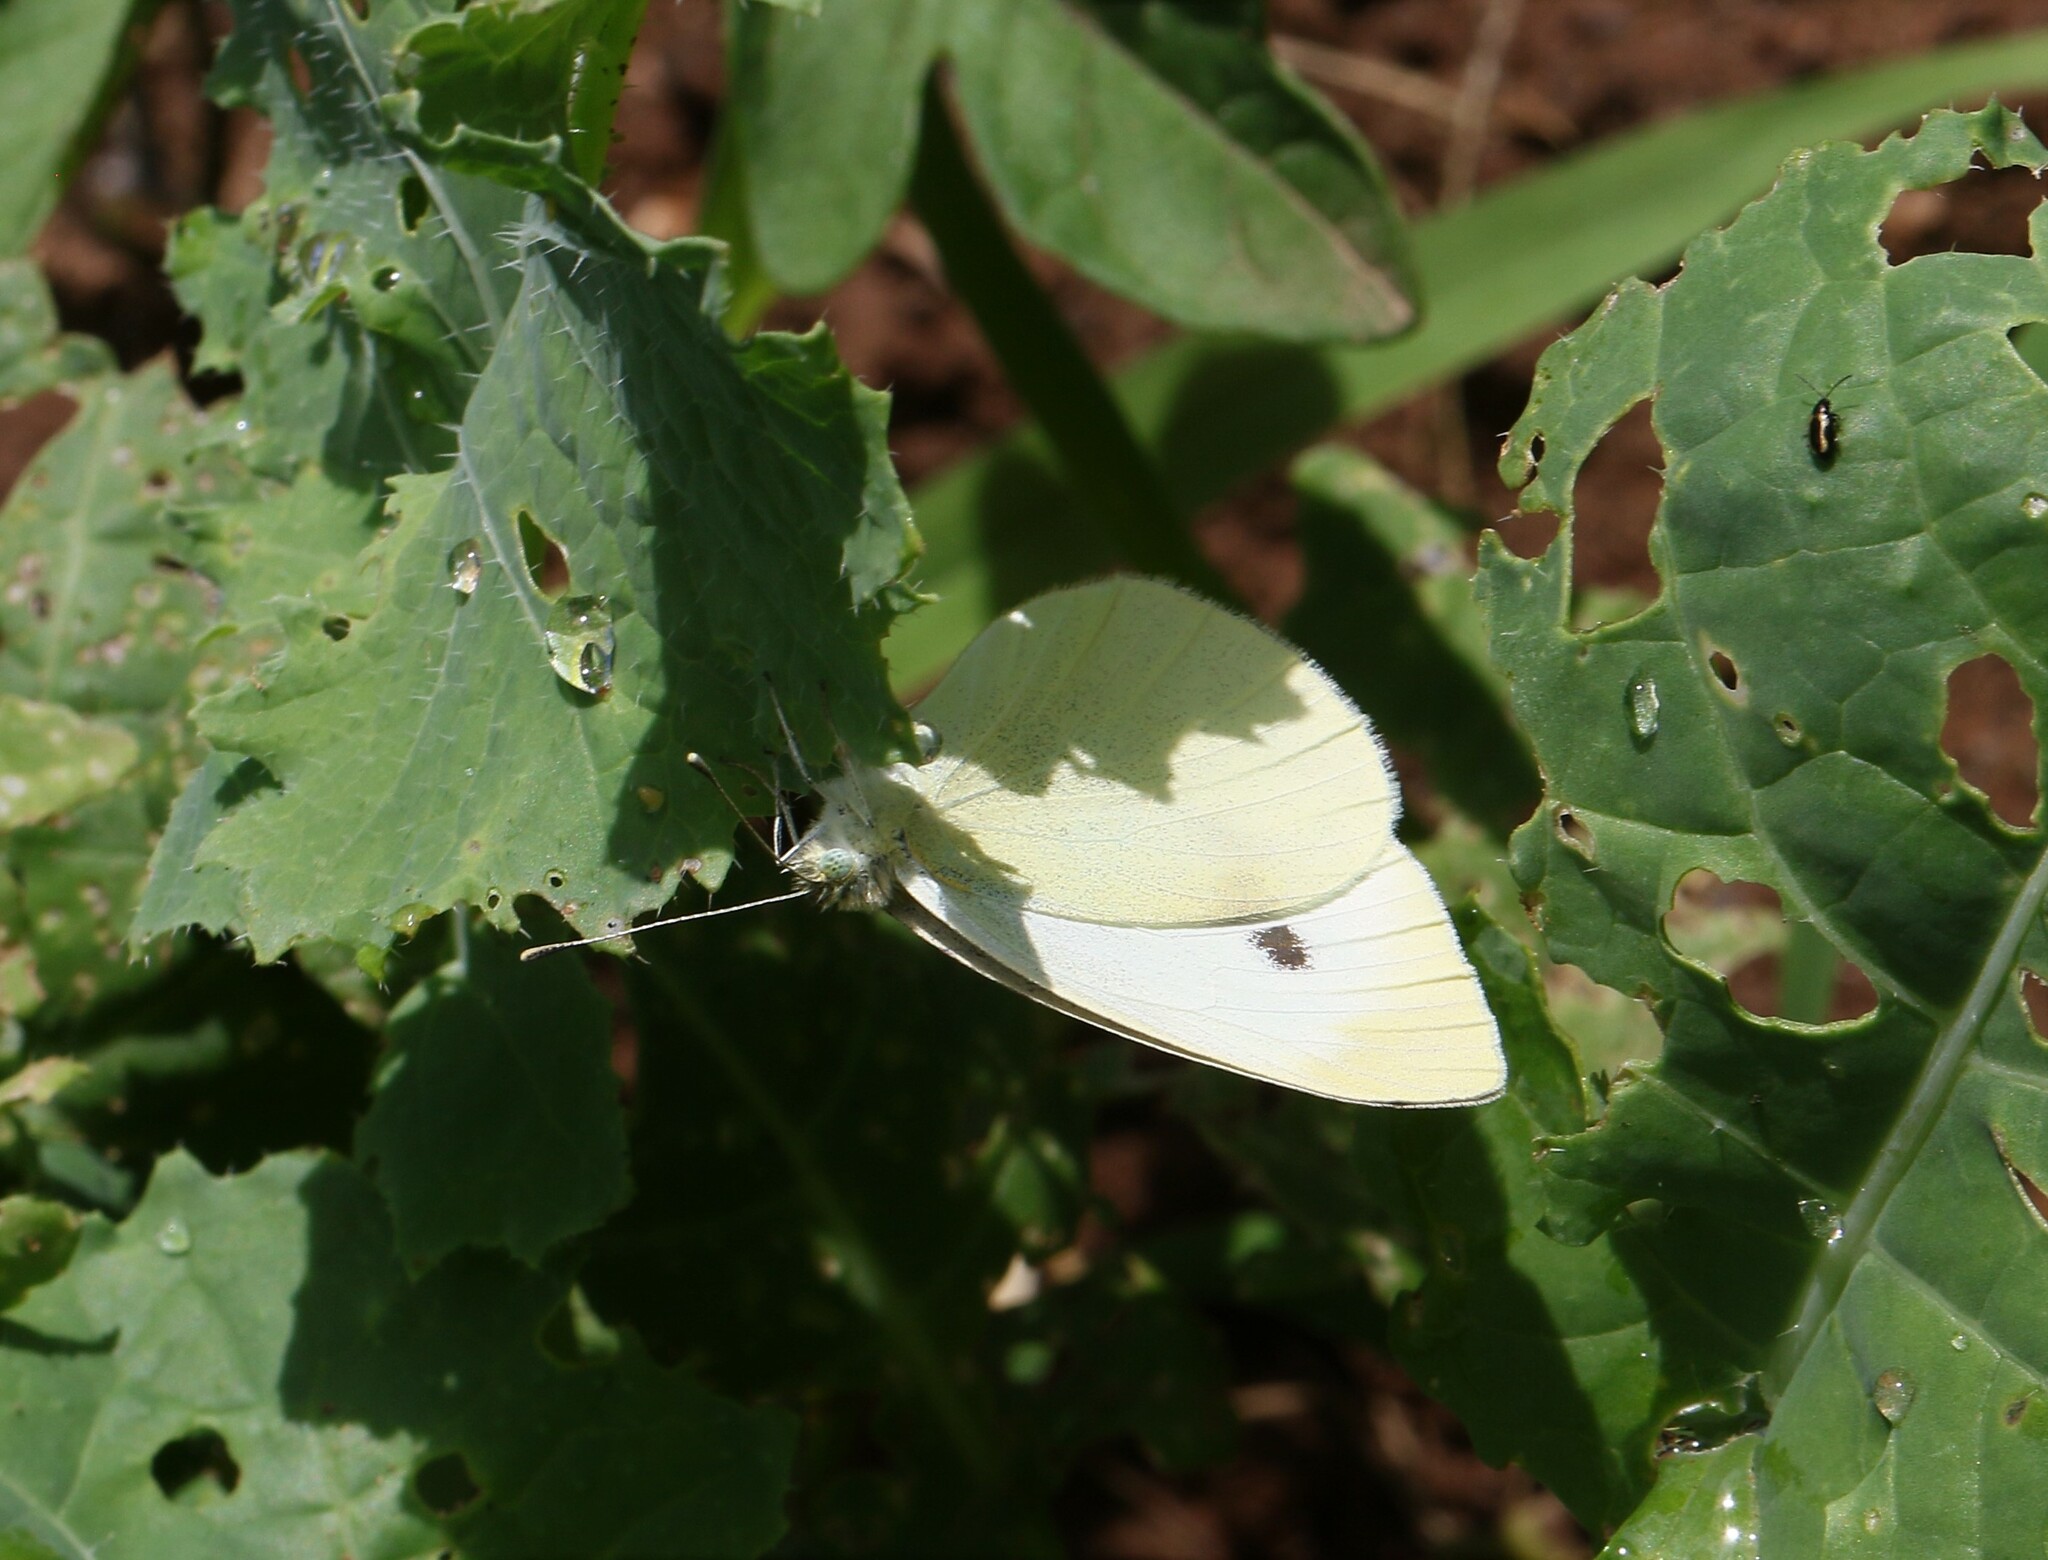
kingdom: Animalia
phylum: Arthropoda
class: Insecta
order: Lepidoptera
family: Pieridae
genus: Pieris
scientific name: Pieris rapae
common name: Small white
